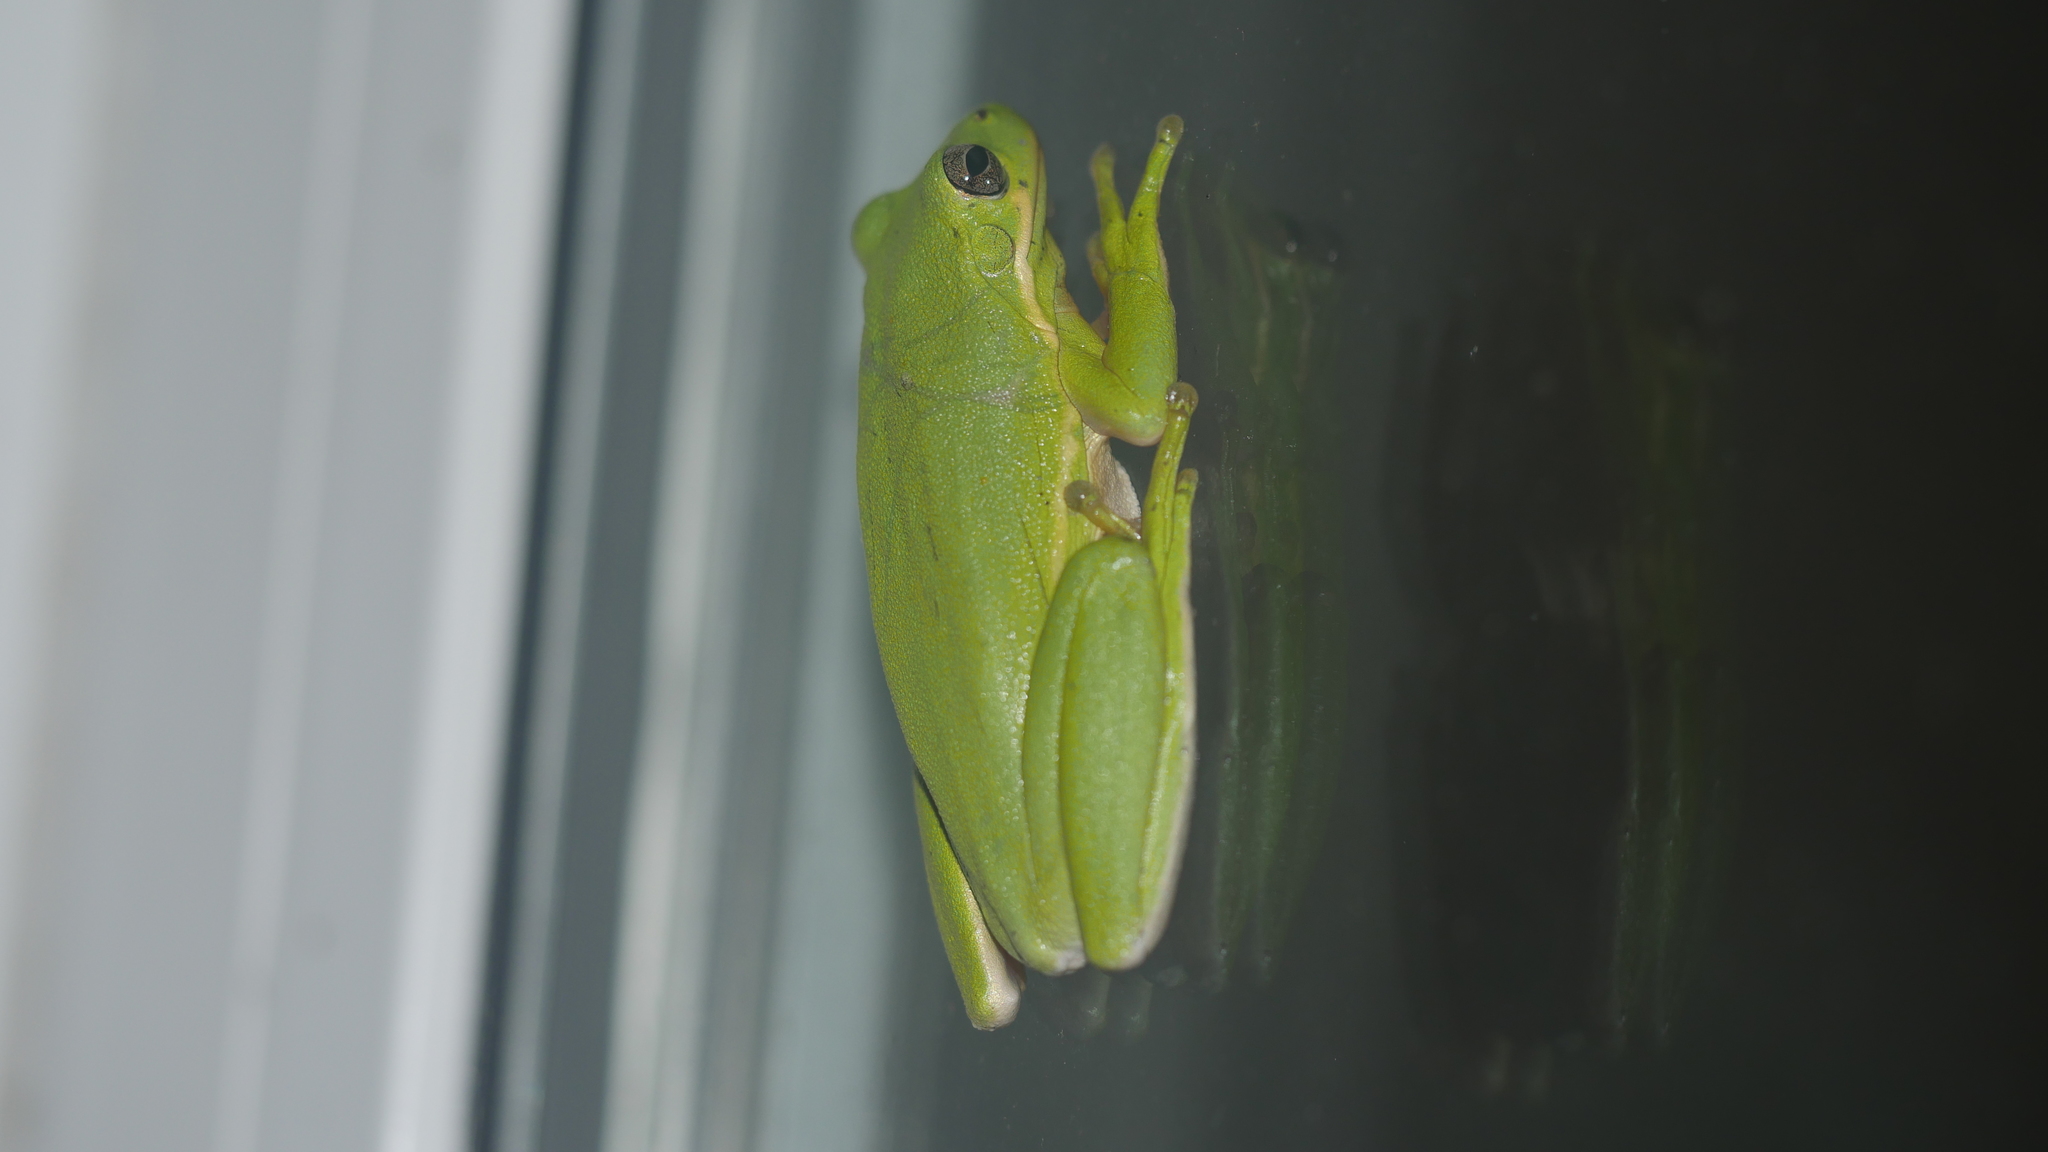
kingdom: Animalia
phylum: Chordata
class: Amphibia
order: Anura
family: Hylidae
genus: Dryophytes
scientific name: Dryophytes cinereus
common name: Green treefrog
